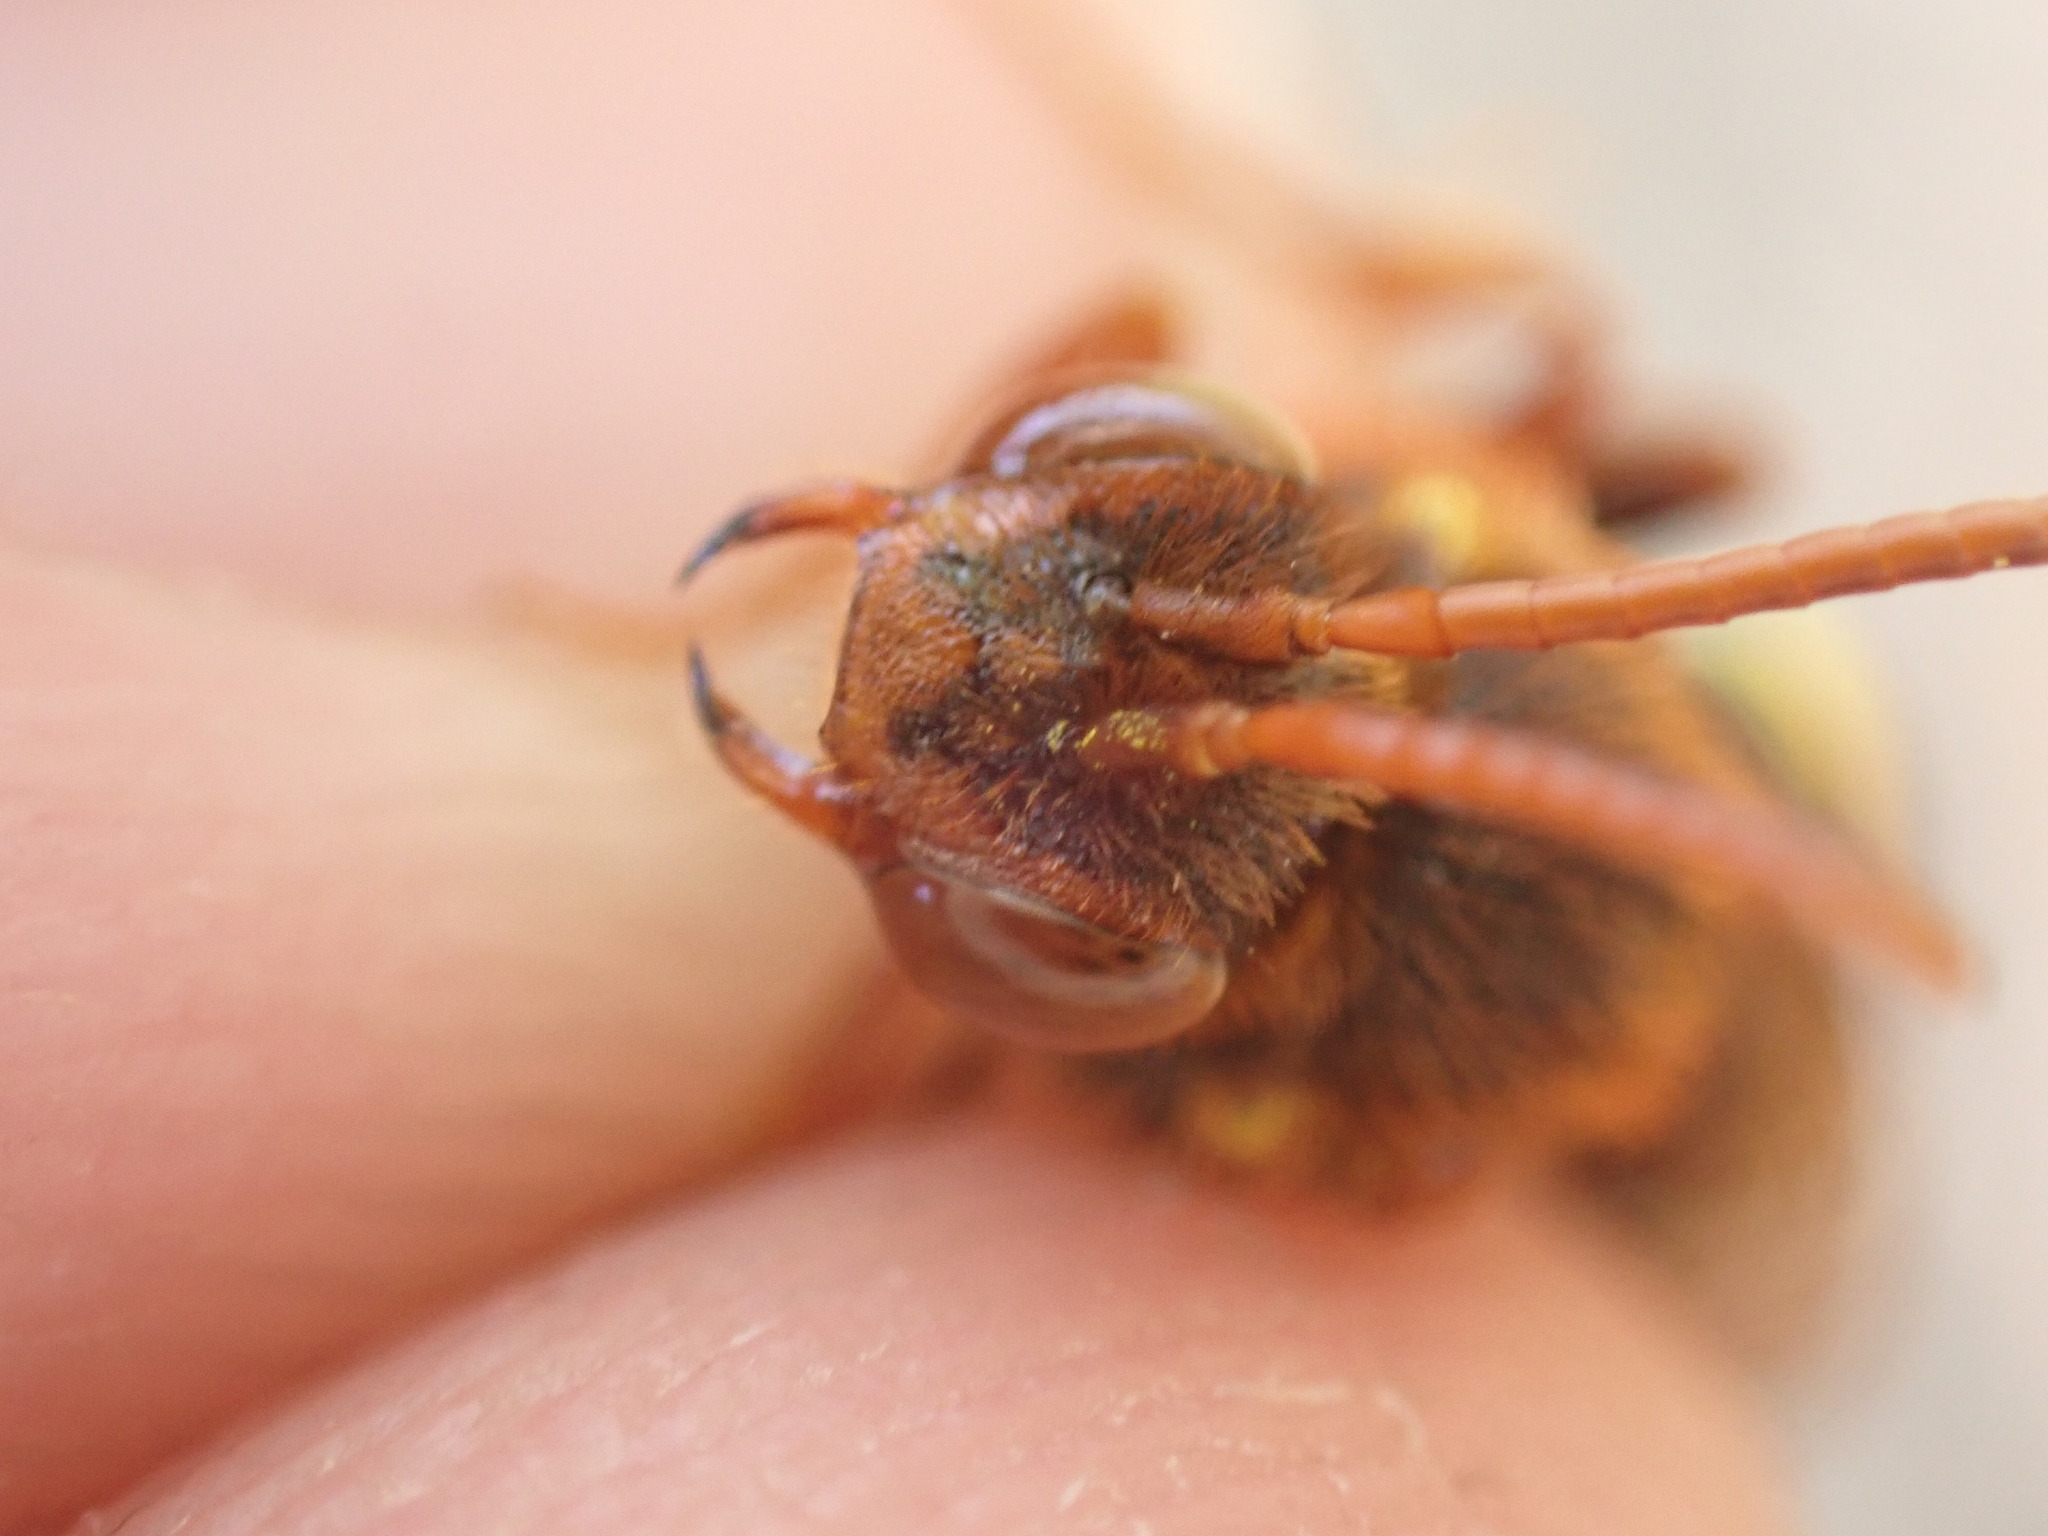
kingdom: Animalia
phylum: Arthropoda
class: Insecta
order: Hymenoptera
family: Apidae
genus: Nomada
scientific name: Nomada lathburiana
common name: Lathbury's nomad bee
